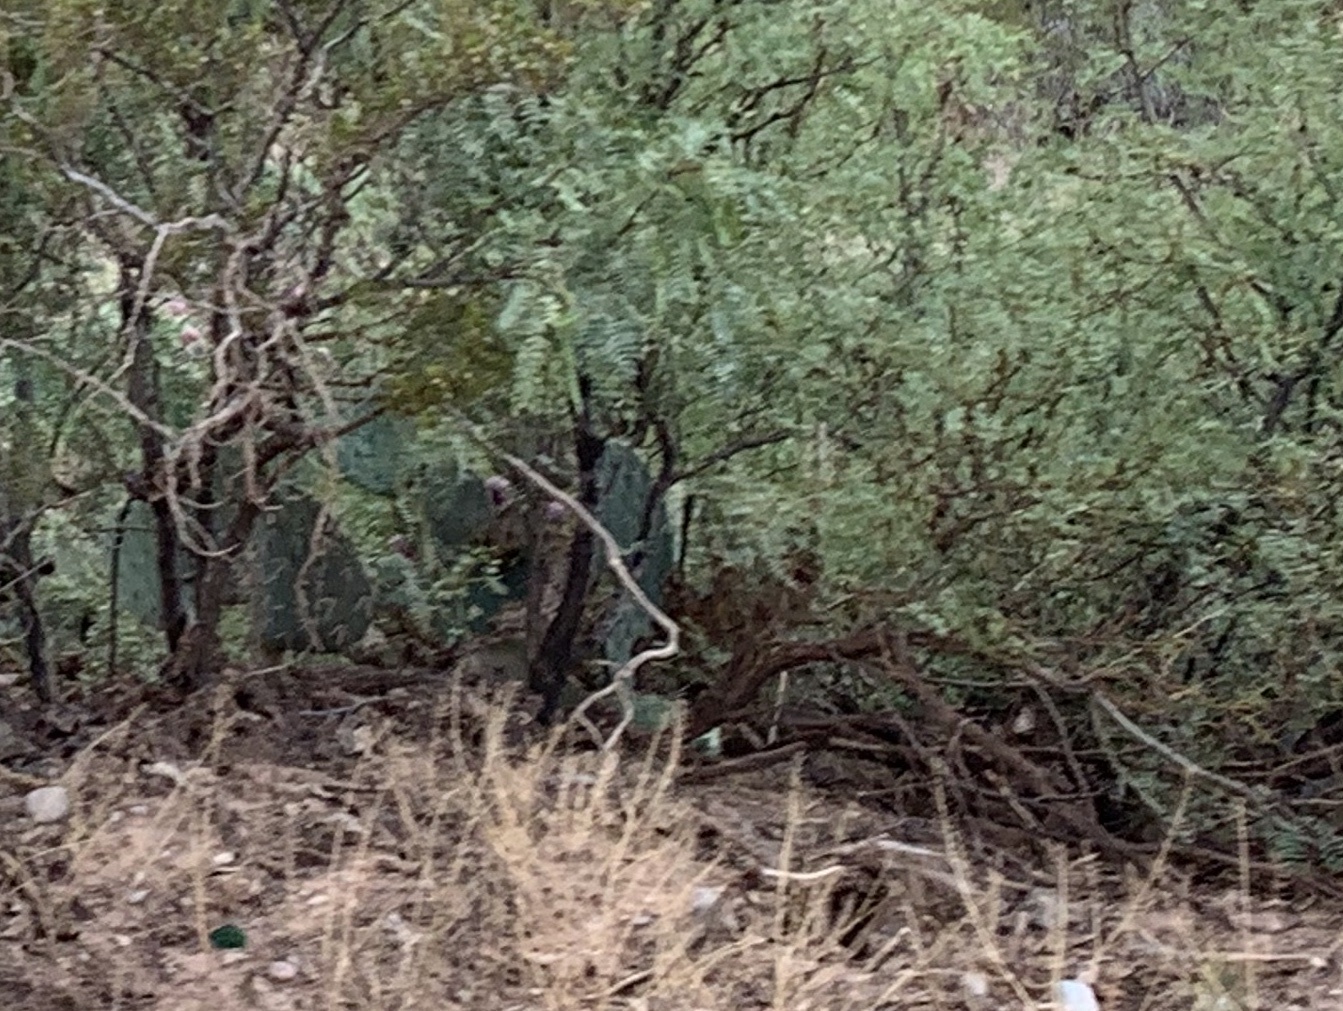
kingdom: Plantae
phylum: Tracheophyta
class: Magnoliopsida
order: Fabales
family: Fabaceae
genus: Prosopis
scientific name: Prosopis glandulosa
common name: Honey mesquite
